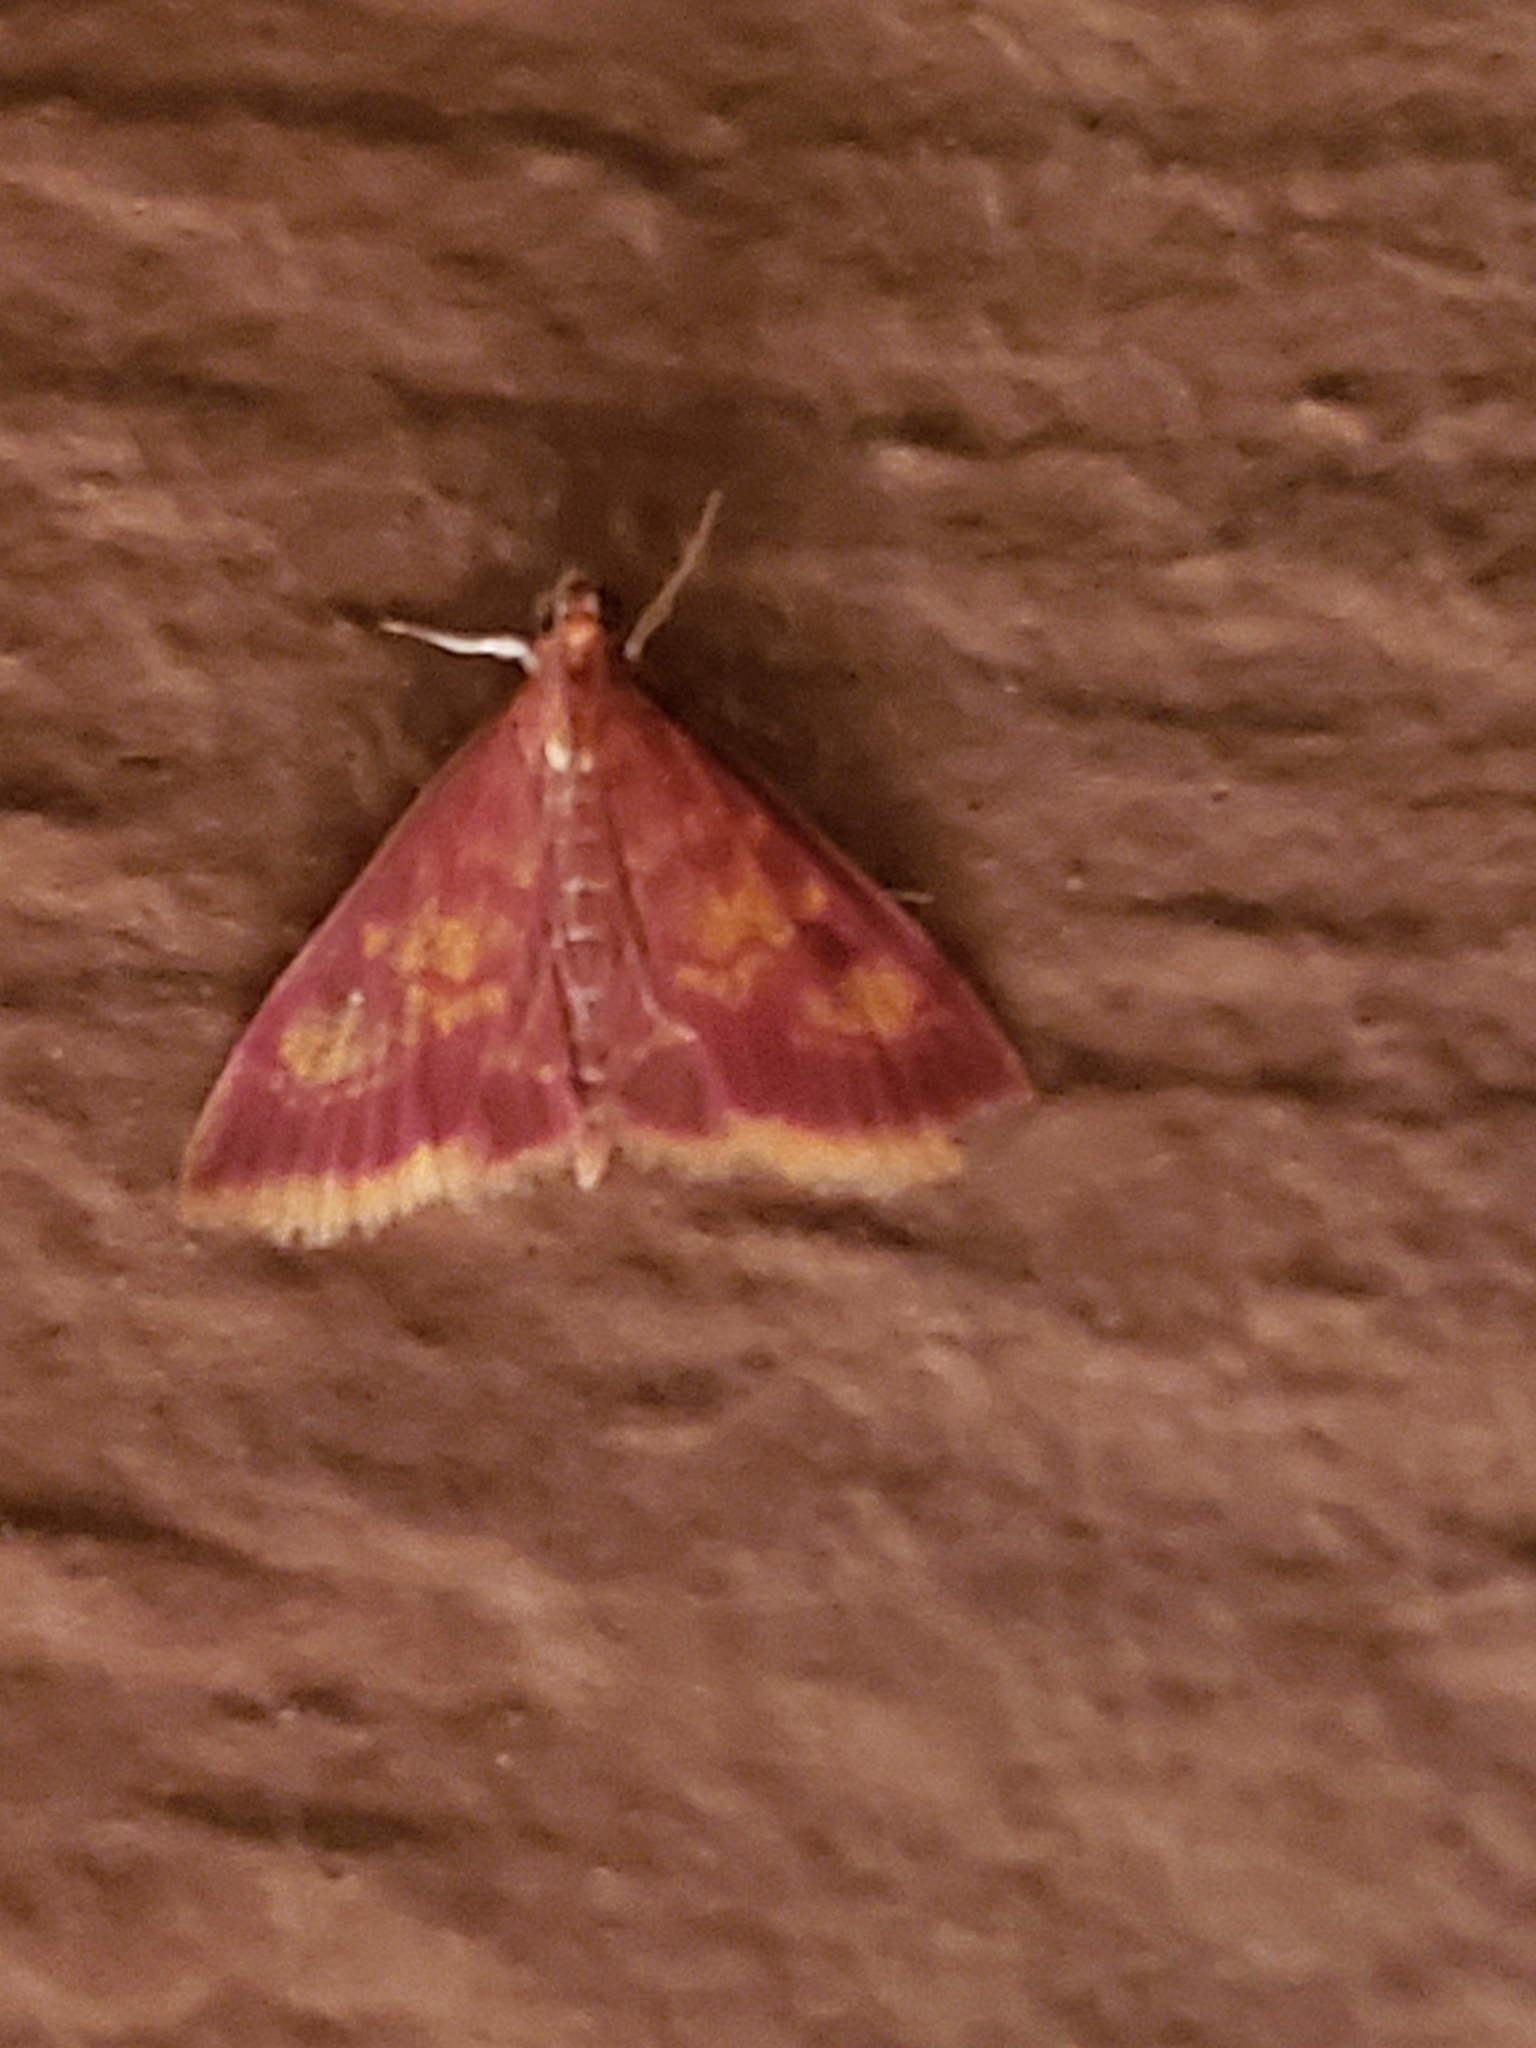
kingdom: Animalia
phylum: Arthropoda
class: Insecta
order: Lepidoptera
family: Crambidae
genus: Pyrausta
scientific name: Pyrausta acrionalis
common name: Mint-loving pyrausta moth
